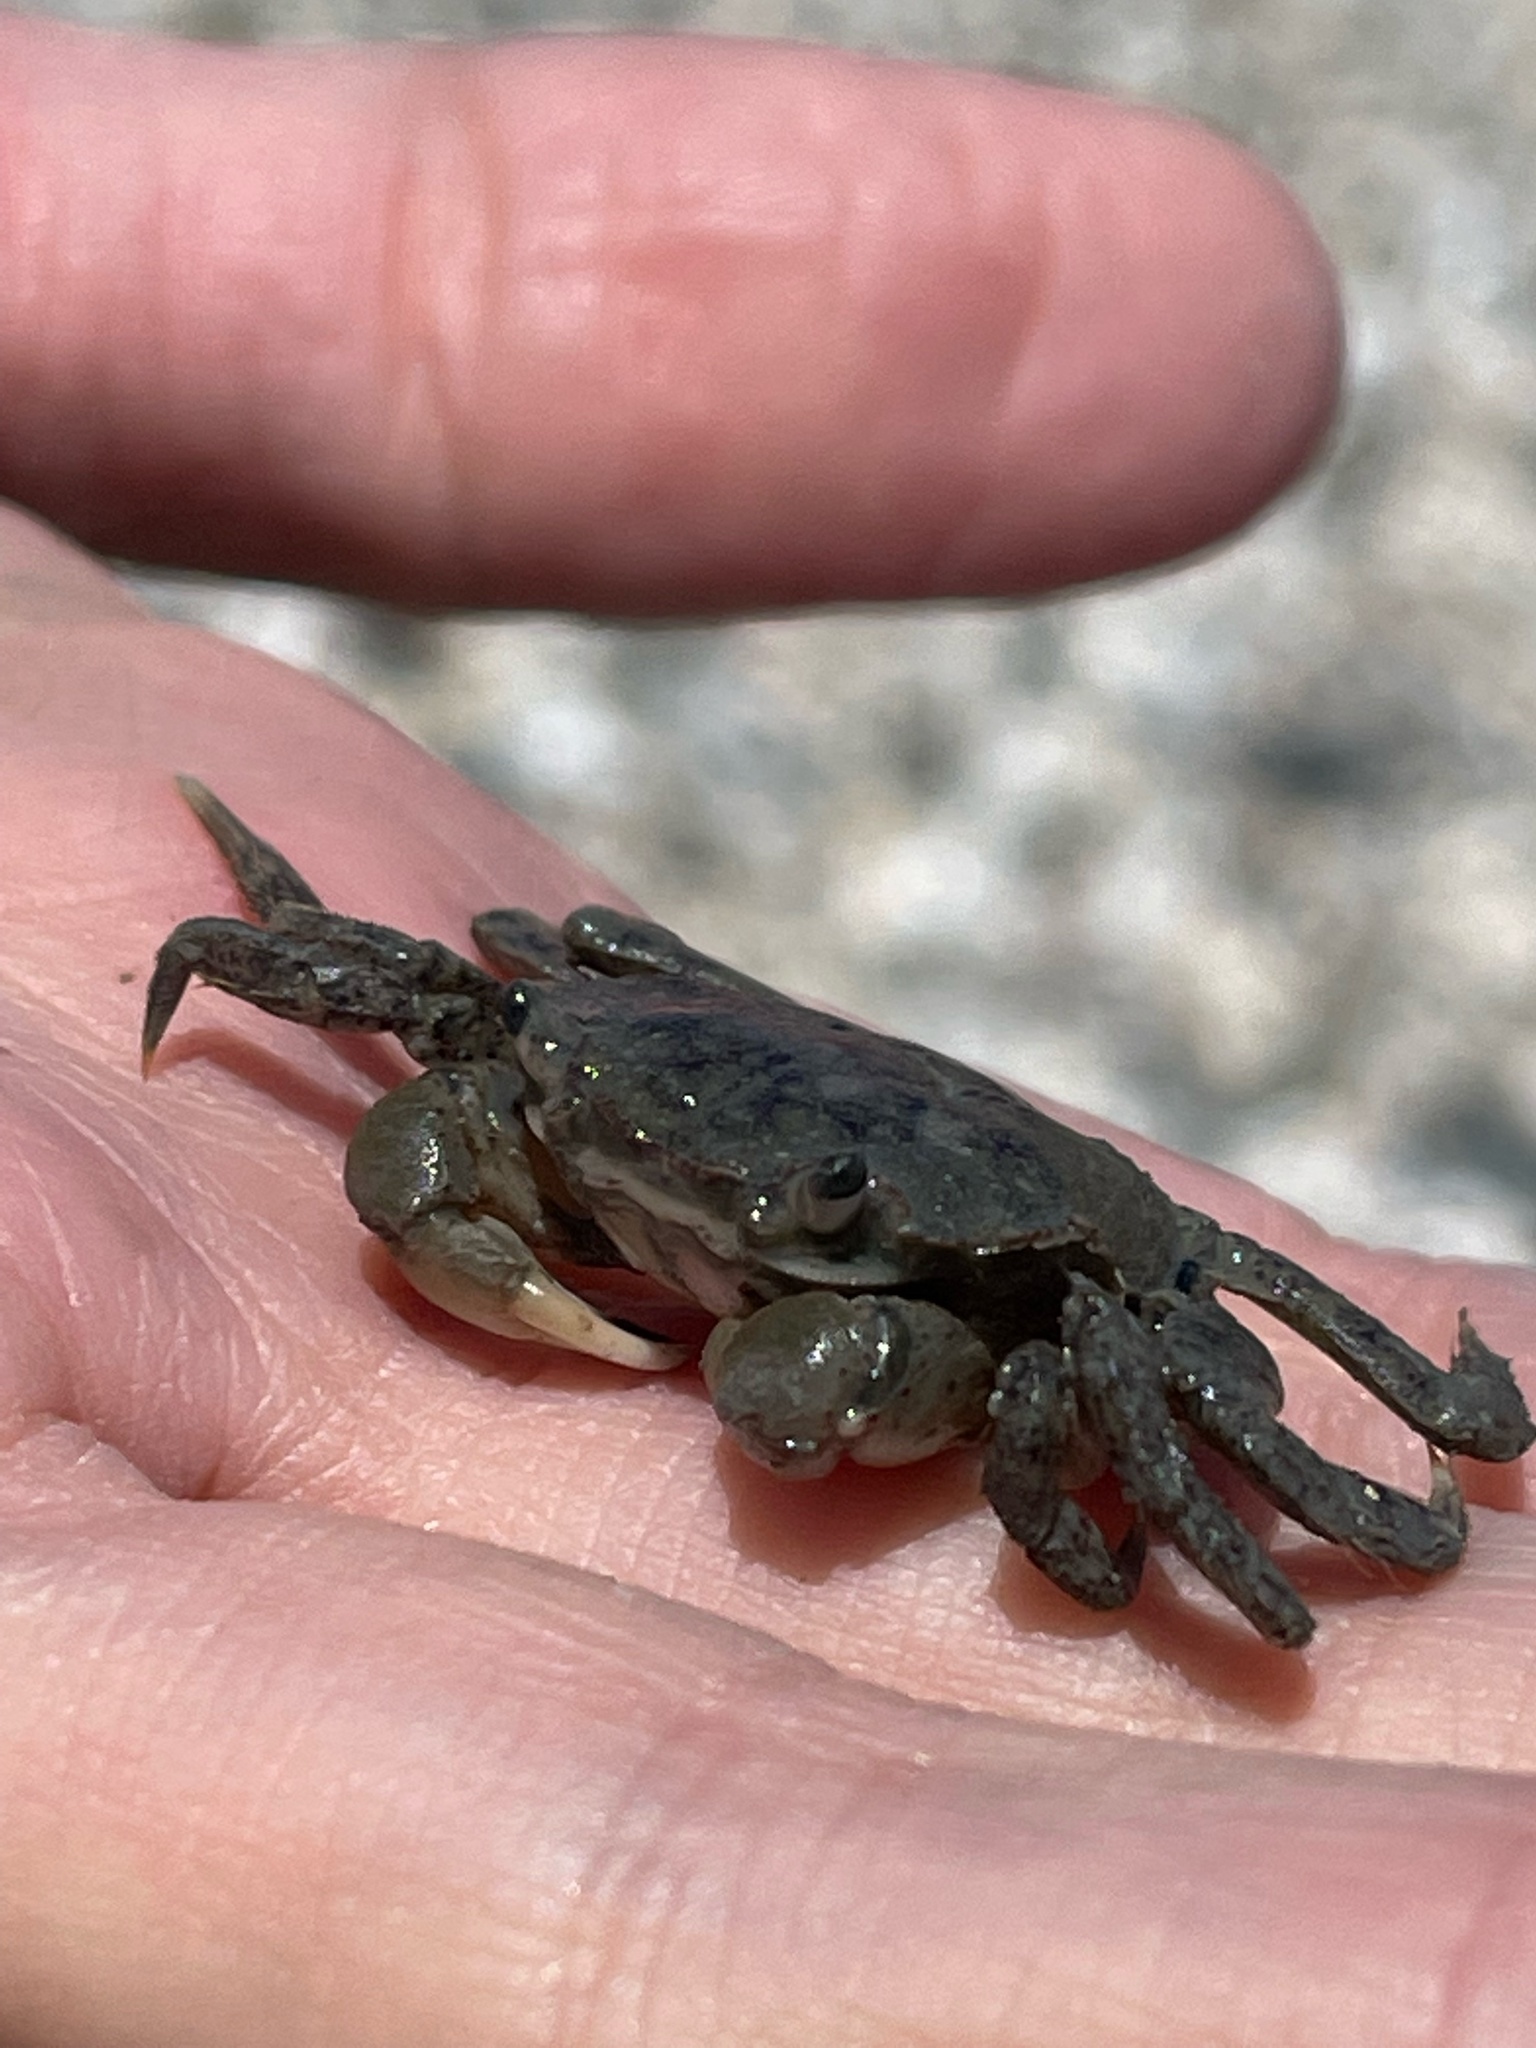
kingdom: Animalia
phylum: Arthropoda
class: Malacostraca
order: Decapoda
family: Varunidae
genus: Hemigrapsus
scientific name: Hemigrapsus oregonensis
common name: Yellow shore crab
